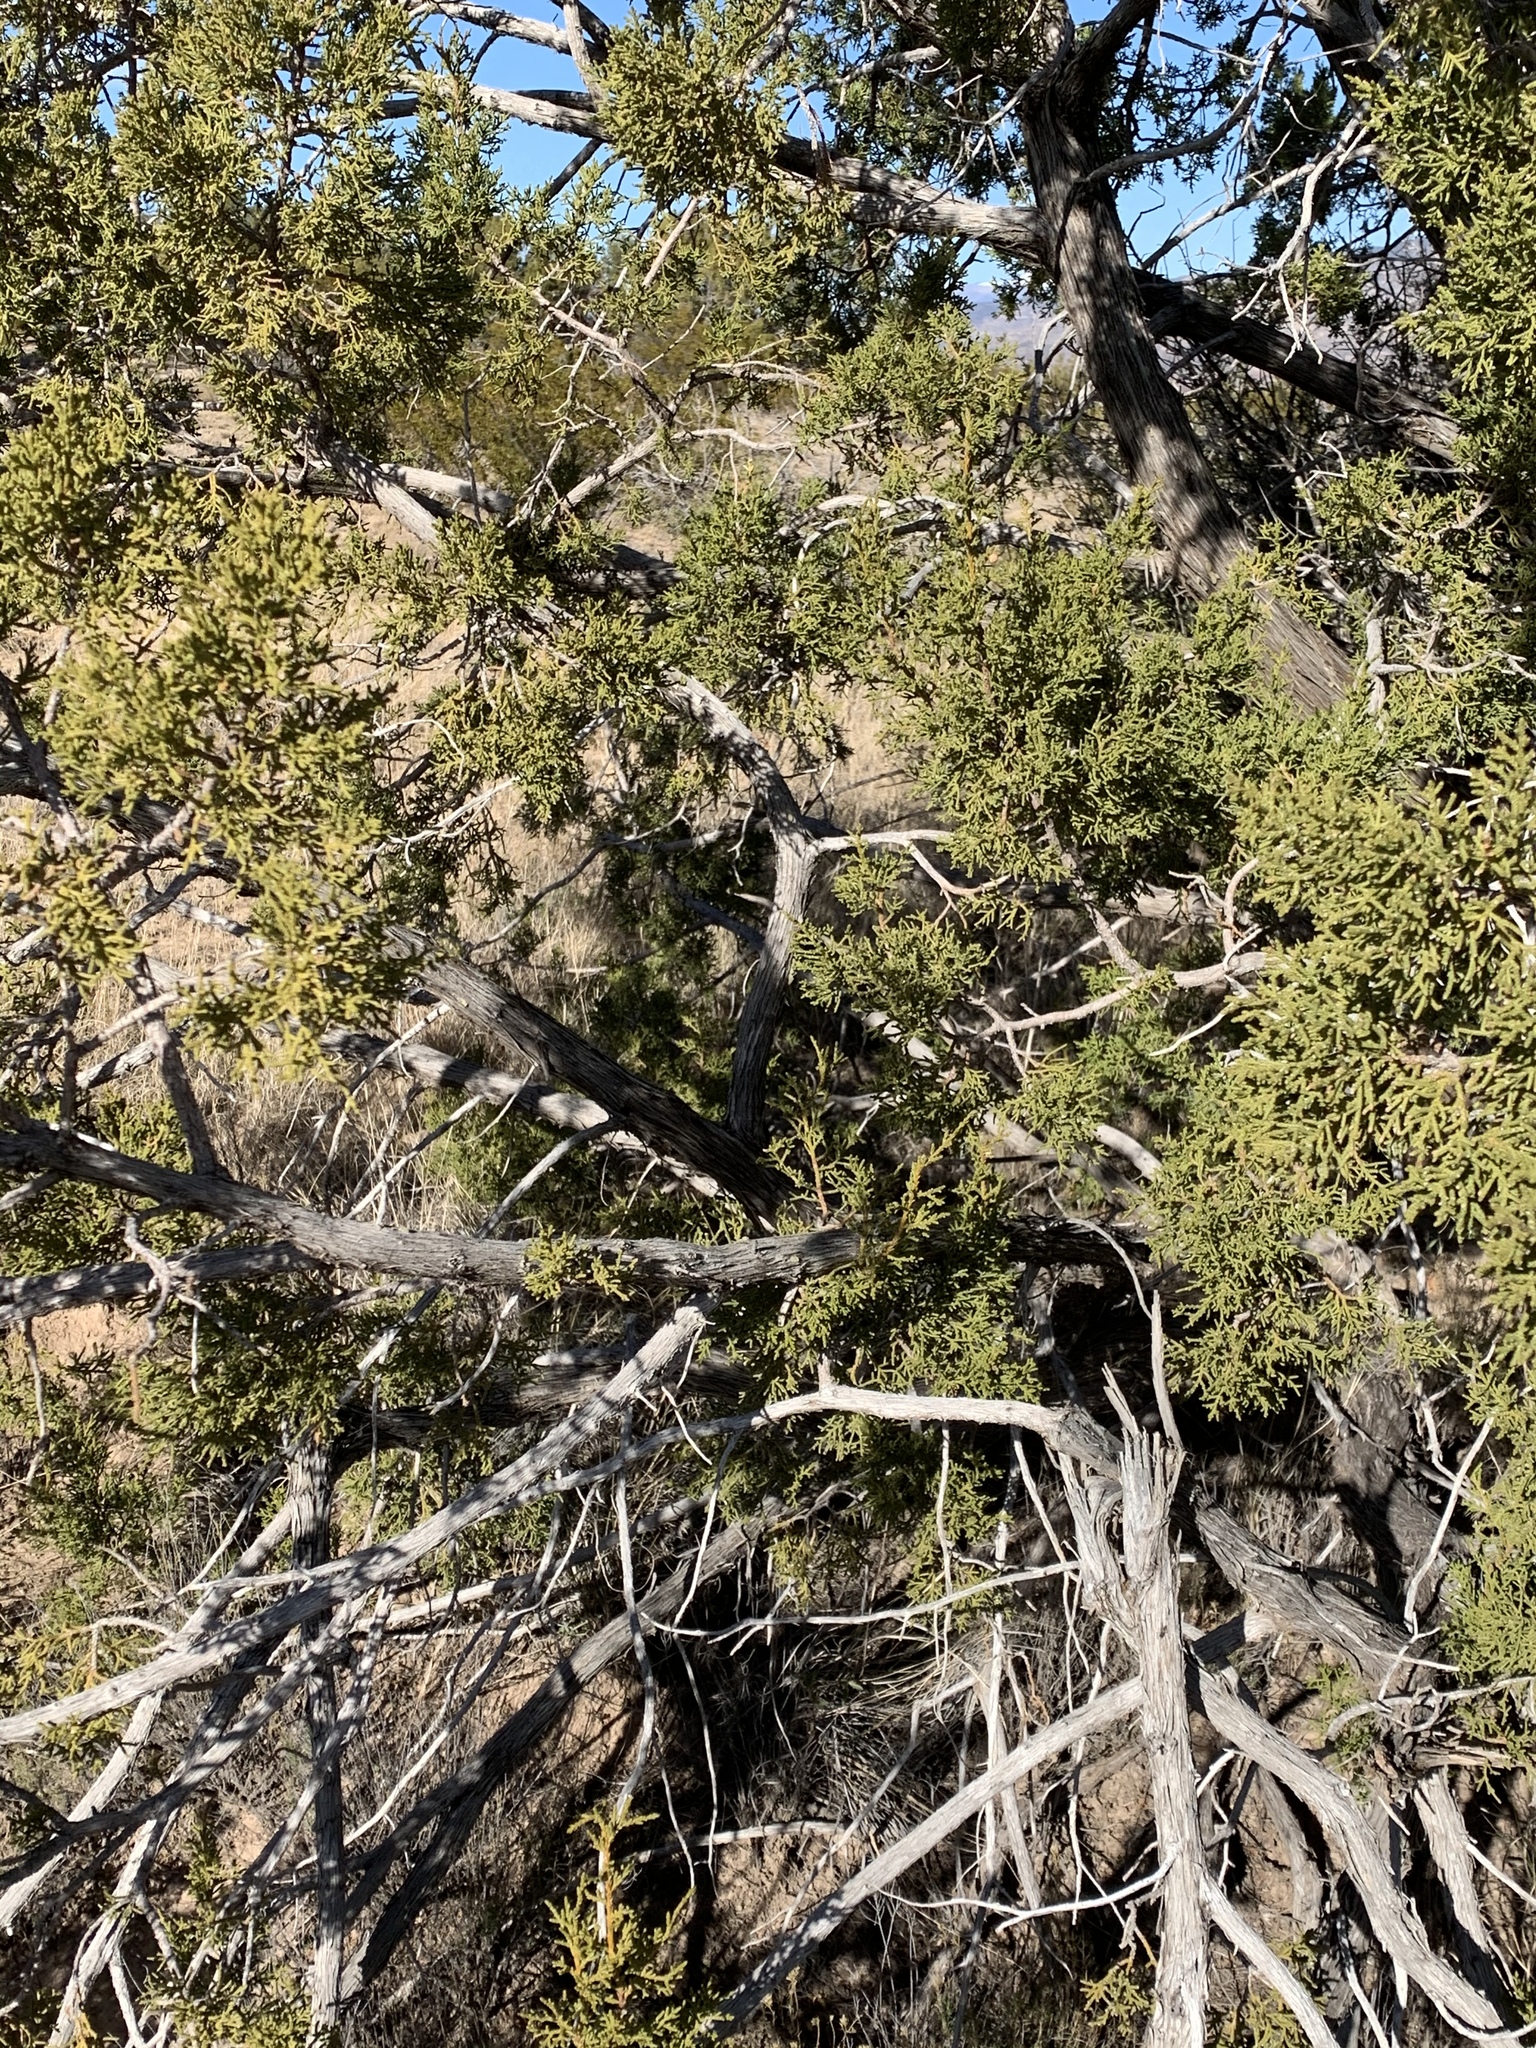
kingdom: Plantae
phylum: Tracheophyta
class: Pinopsida
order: Pinales
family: Cupressaceae
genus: Juniperus
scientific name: Juniperus monosperma
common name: One-seed juniper
